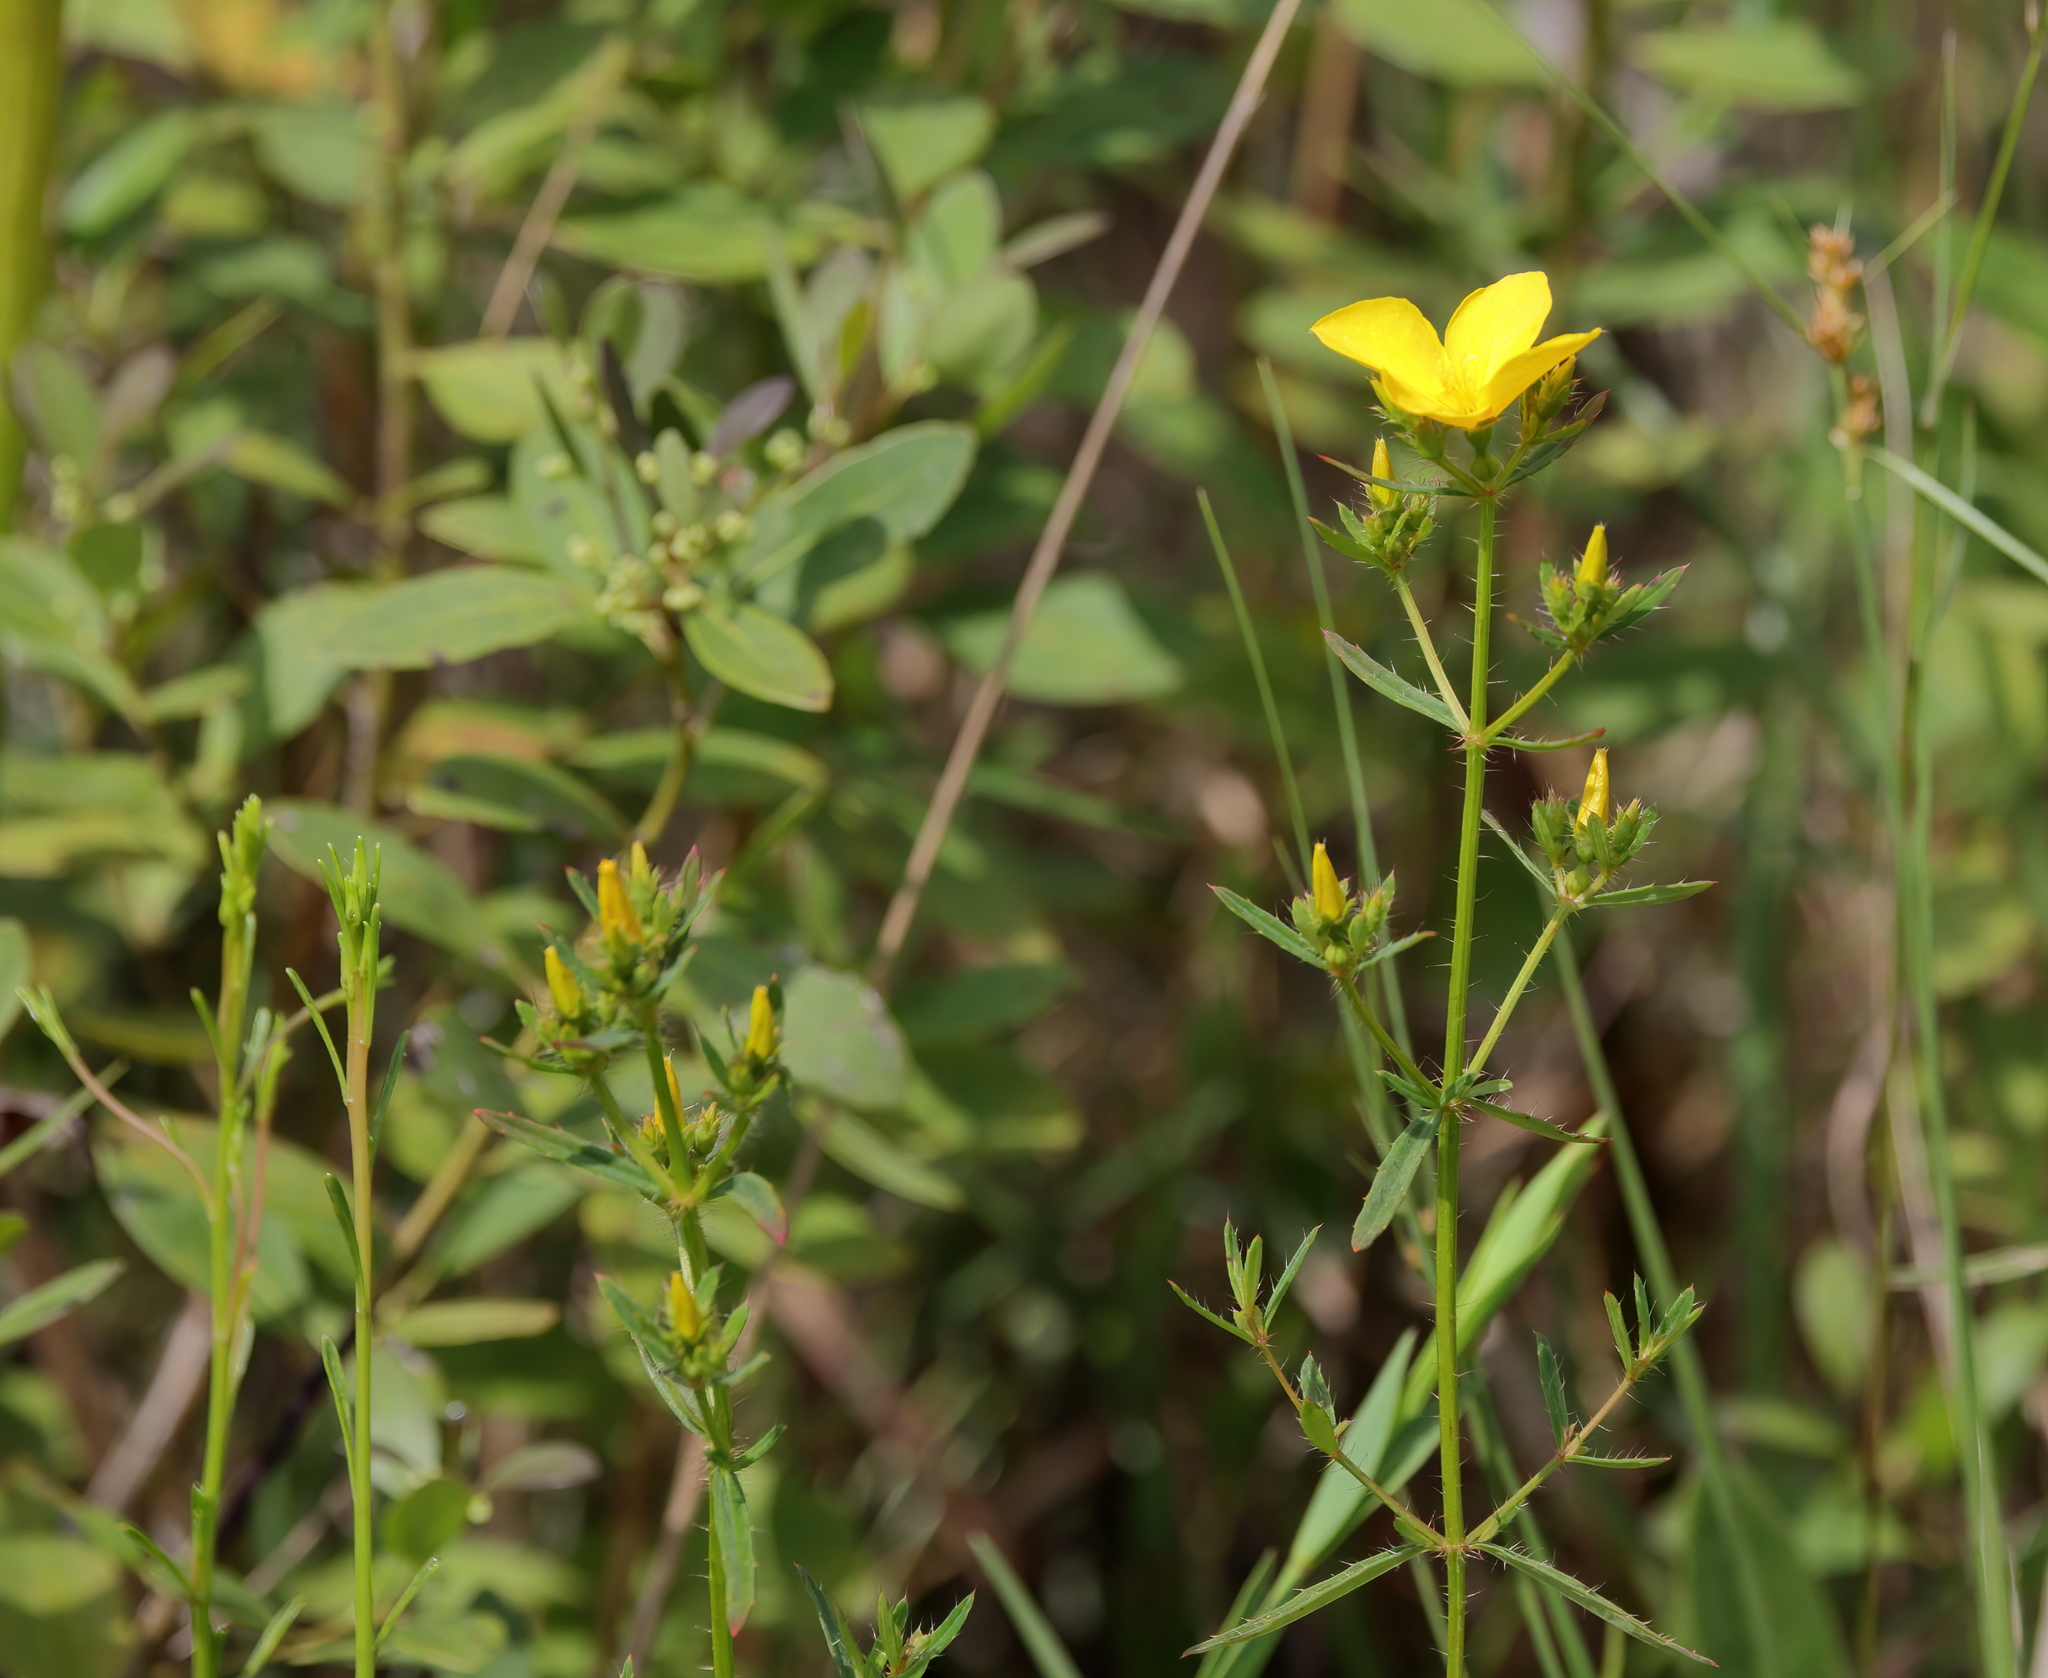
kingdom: Plantae
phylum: Tracheophyta
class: Magnoliopsida
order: Myrtales
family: Melastomataceae
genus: Rhexia
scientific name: Rhexia lutea
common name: Golden meadow-beauty
